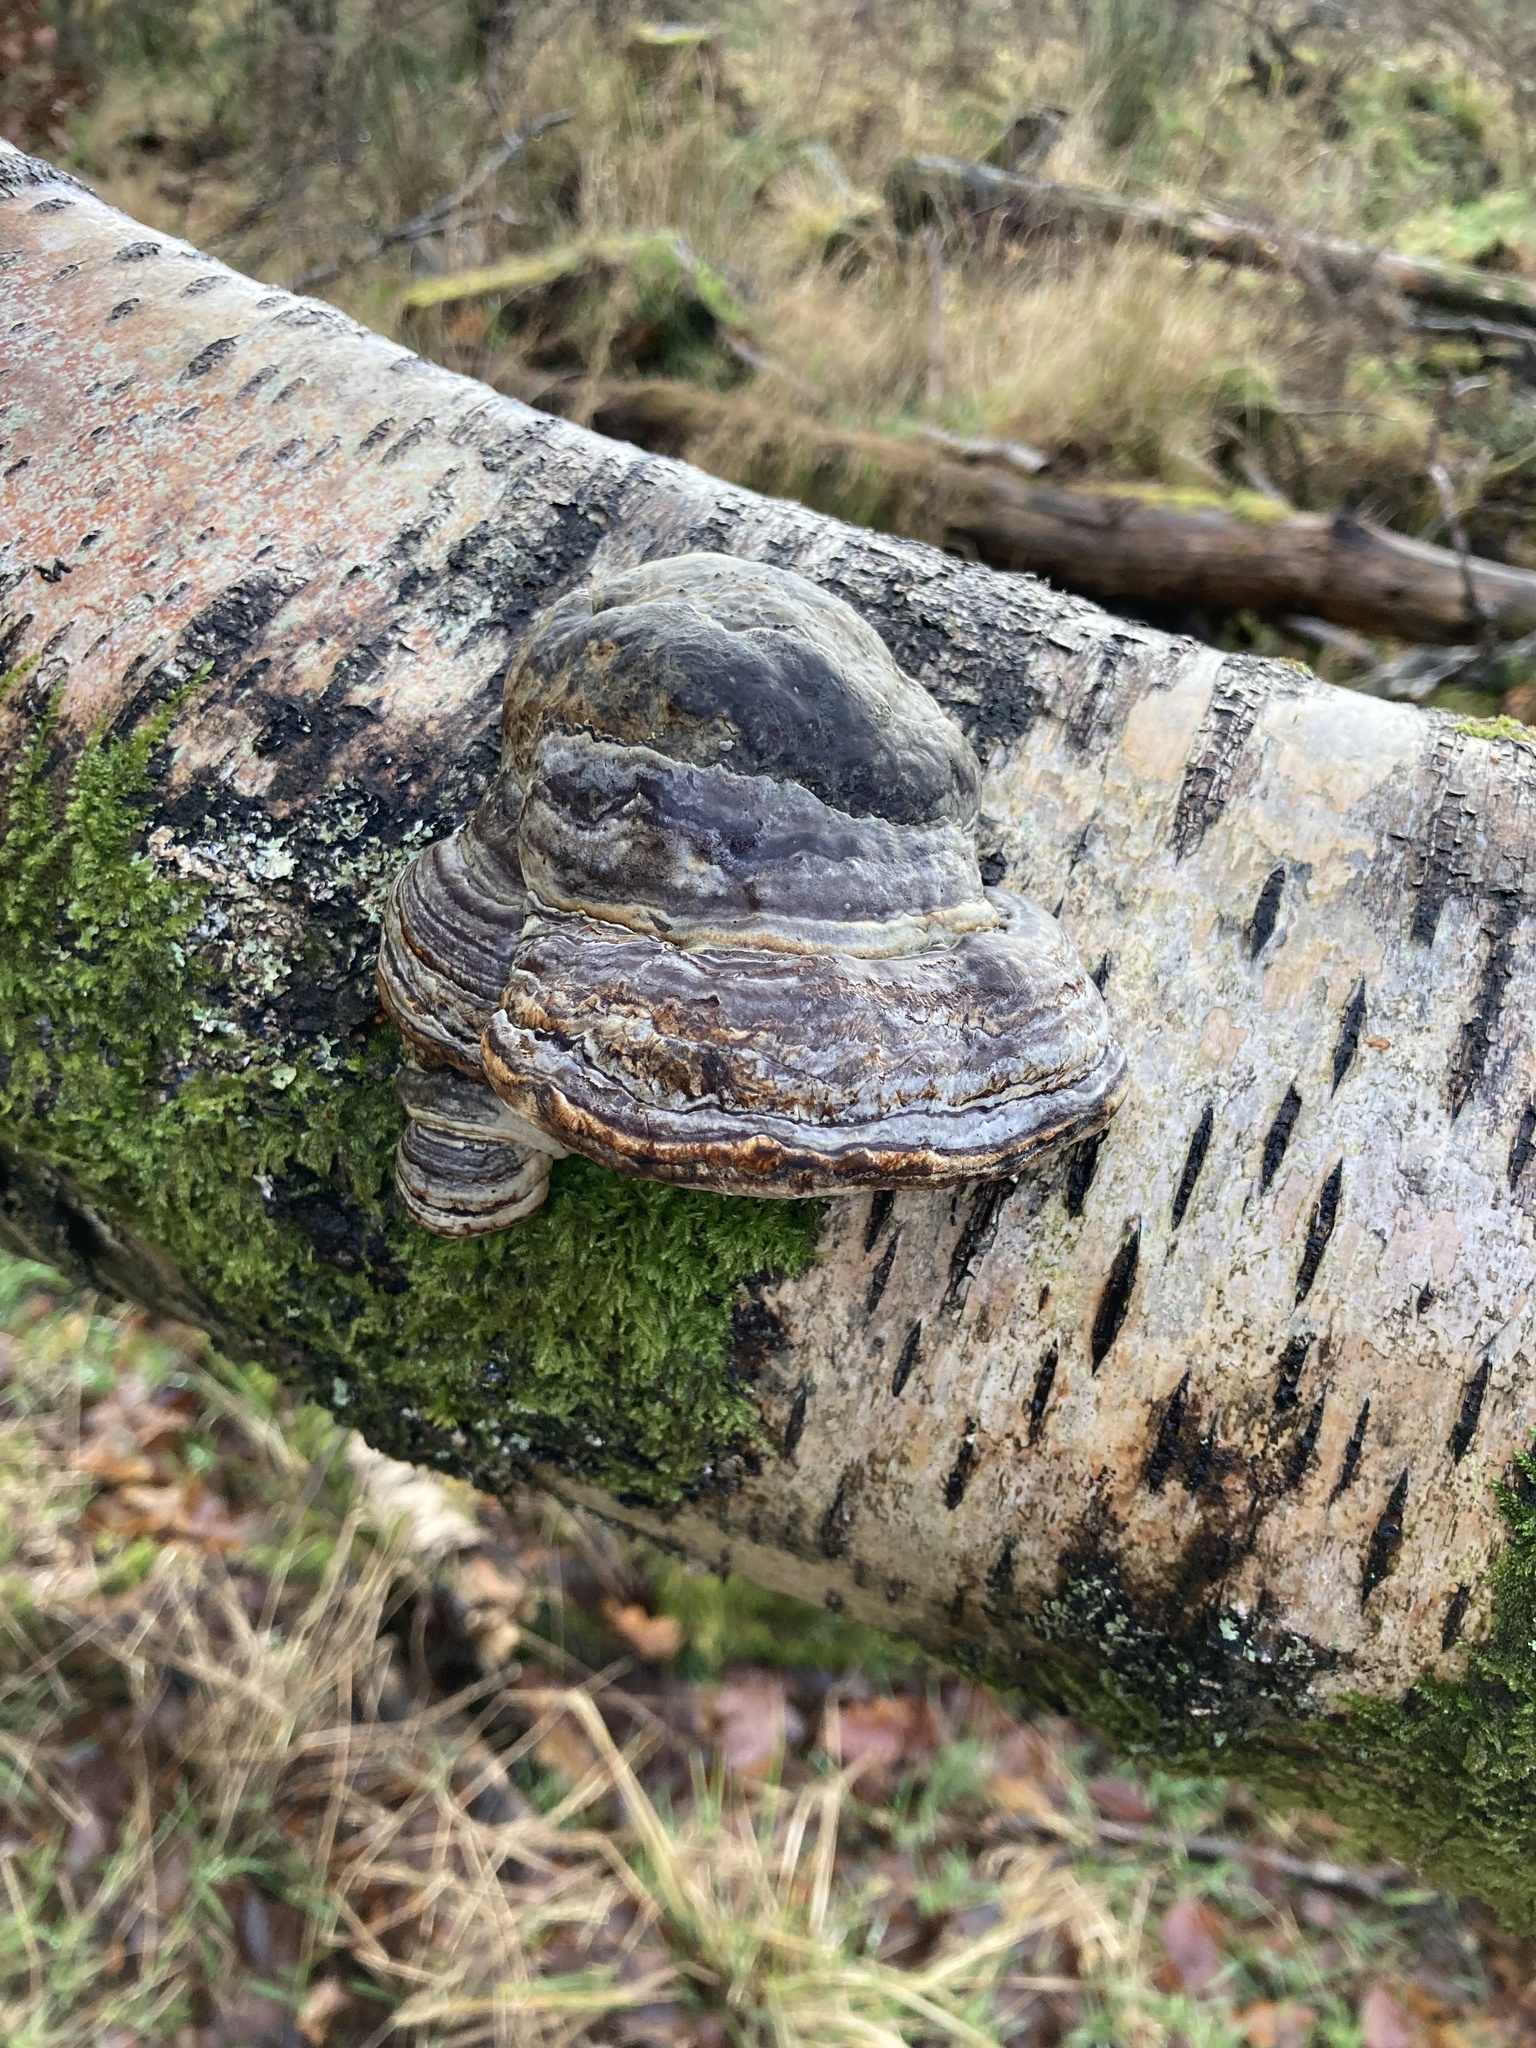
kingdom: Fungi
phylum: Basidiomycota
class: Agaricomycetes
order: Polyporales
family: Polyporaceae
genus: Fomes
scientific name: Fomes fomentarius
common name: Hoof fungus
